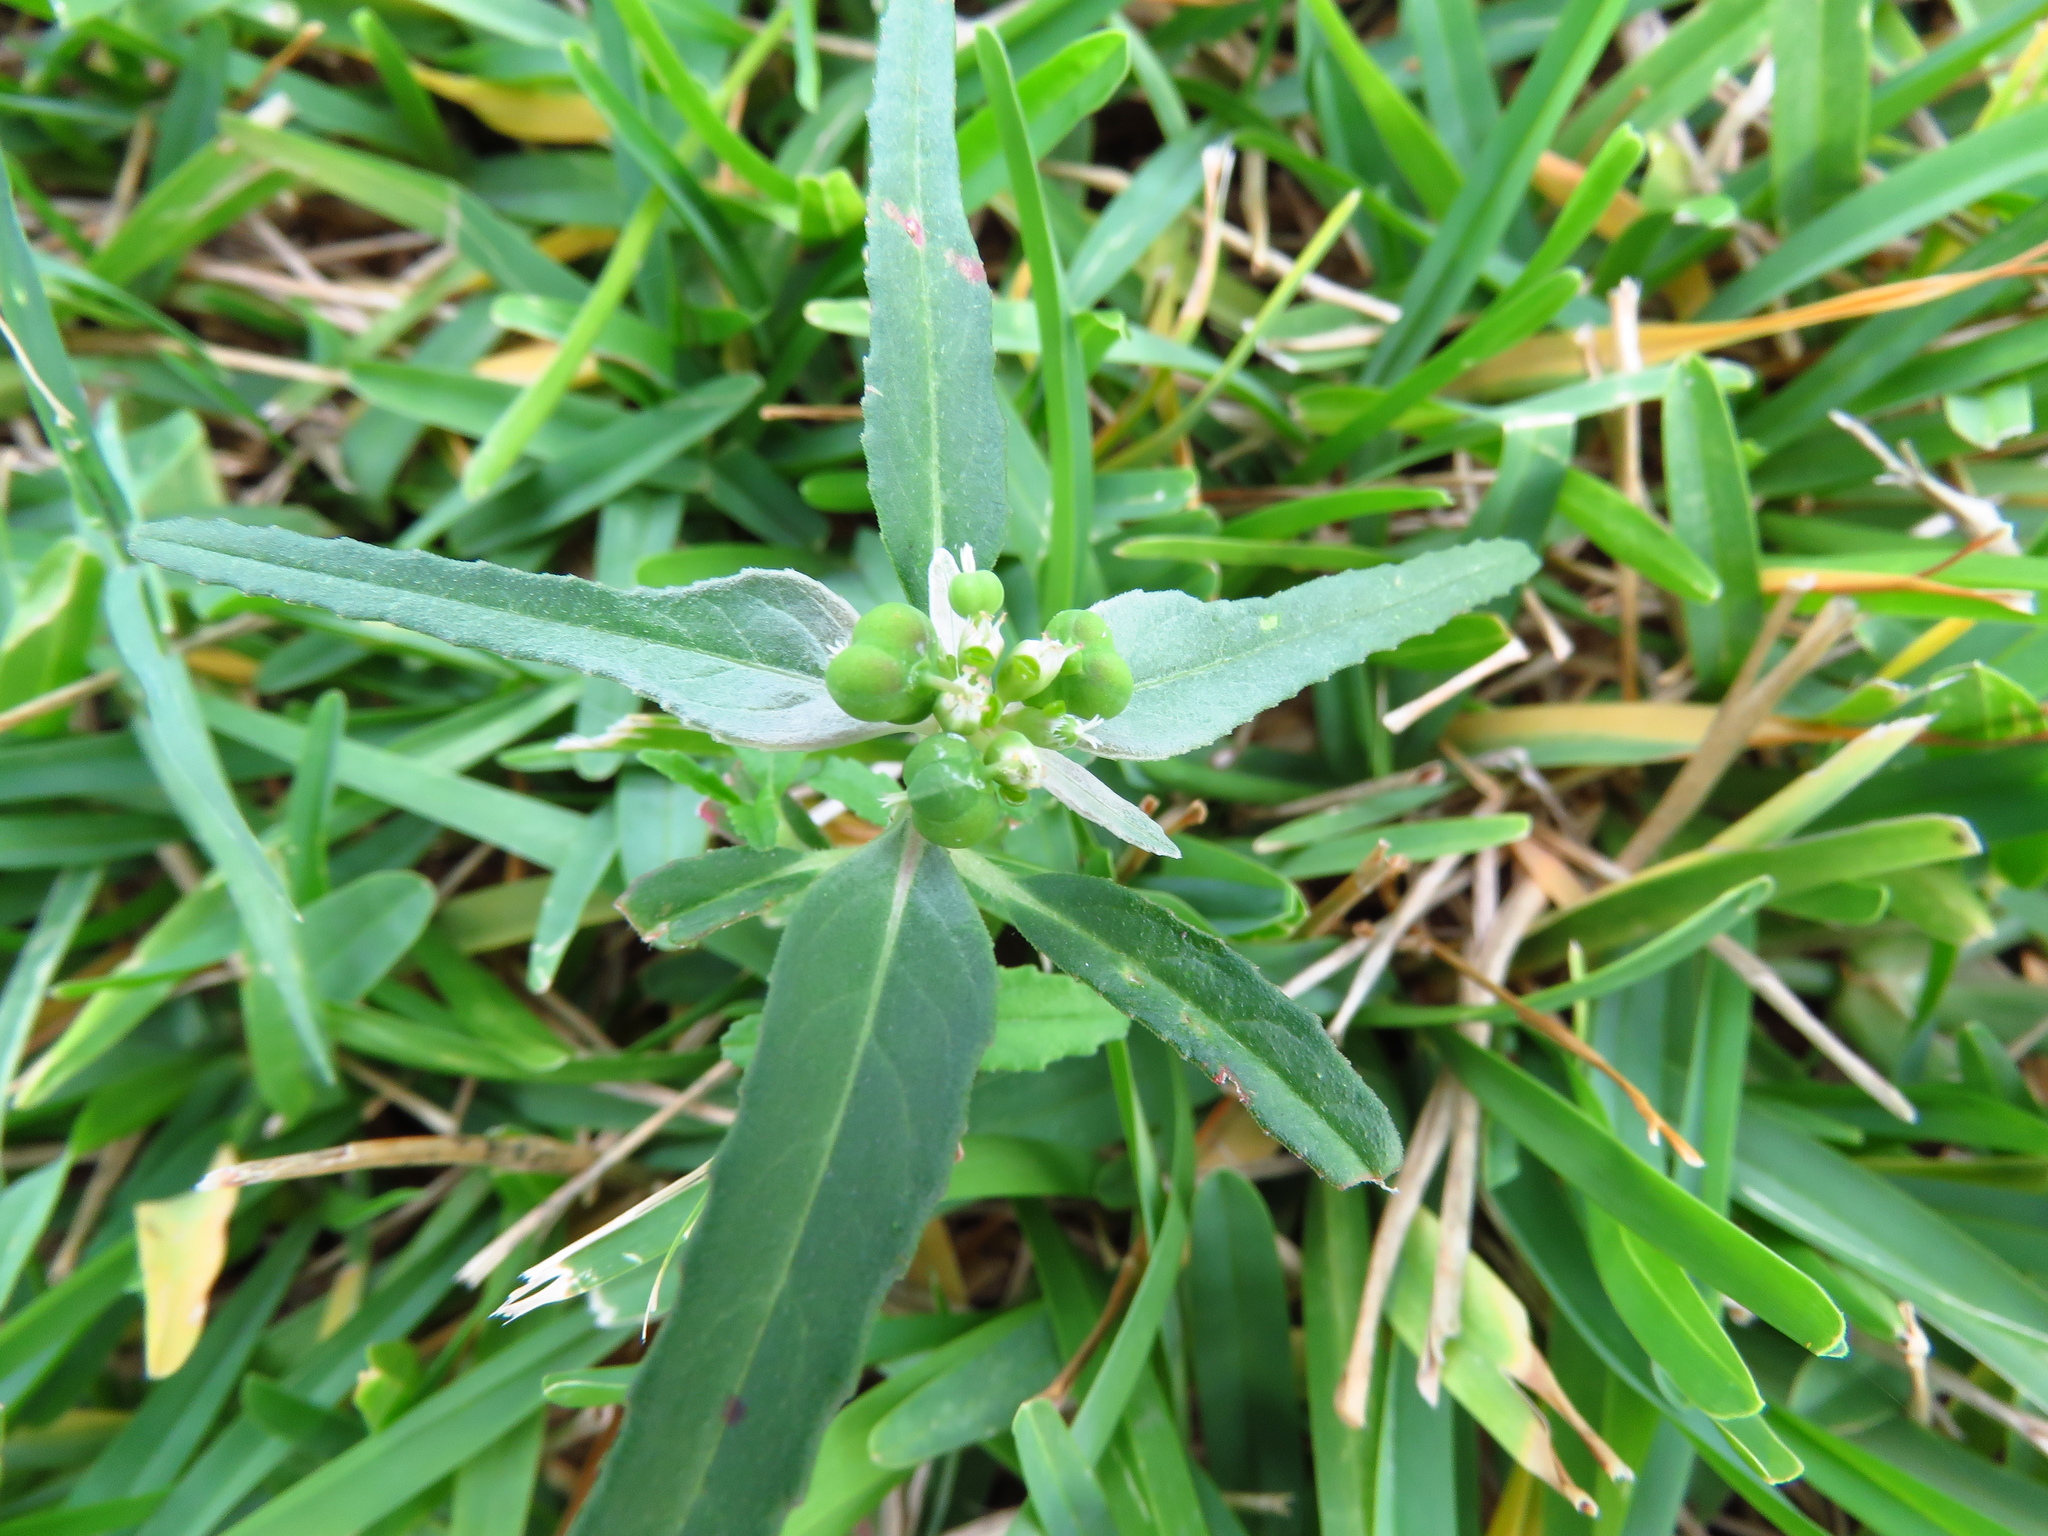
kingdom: Plantae
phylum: Tracheophyta
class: Magnoliopsida
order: Malpighiales
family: Euphorbiaceae
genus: Euphorbia
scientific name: Euphorbia dentata
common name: Dentate spurge
